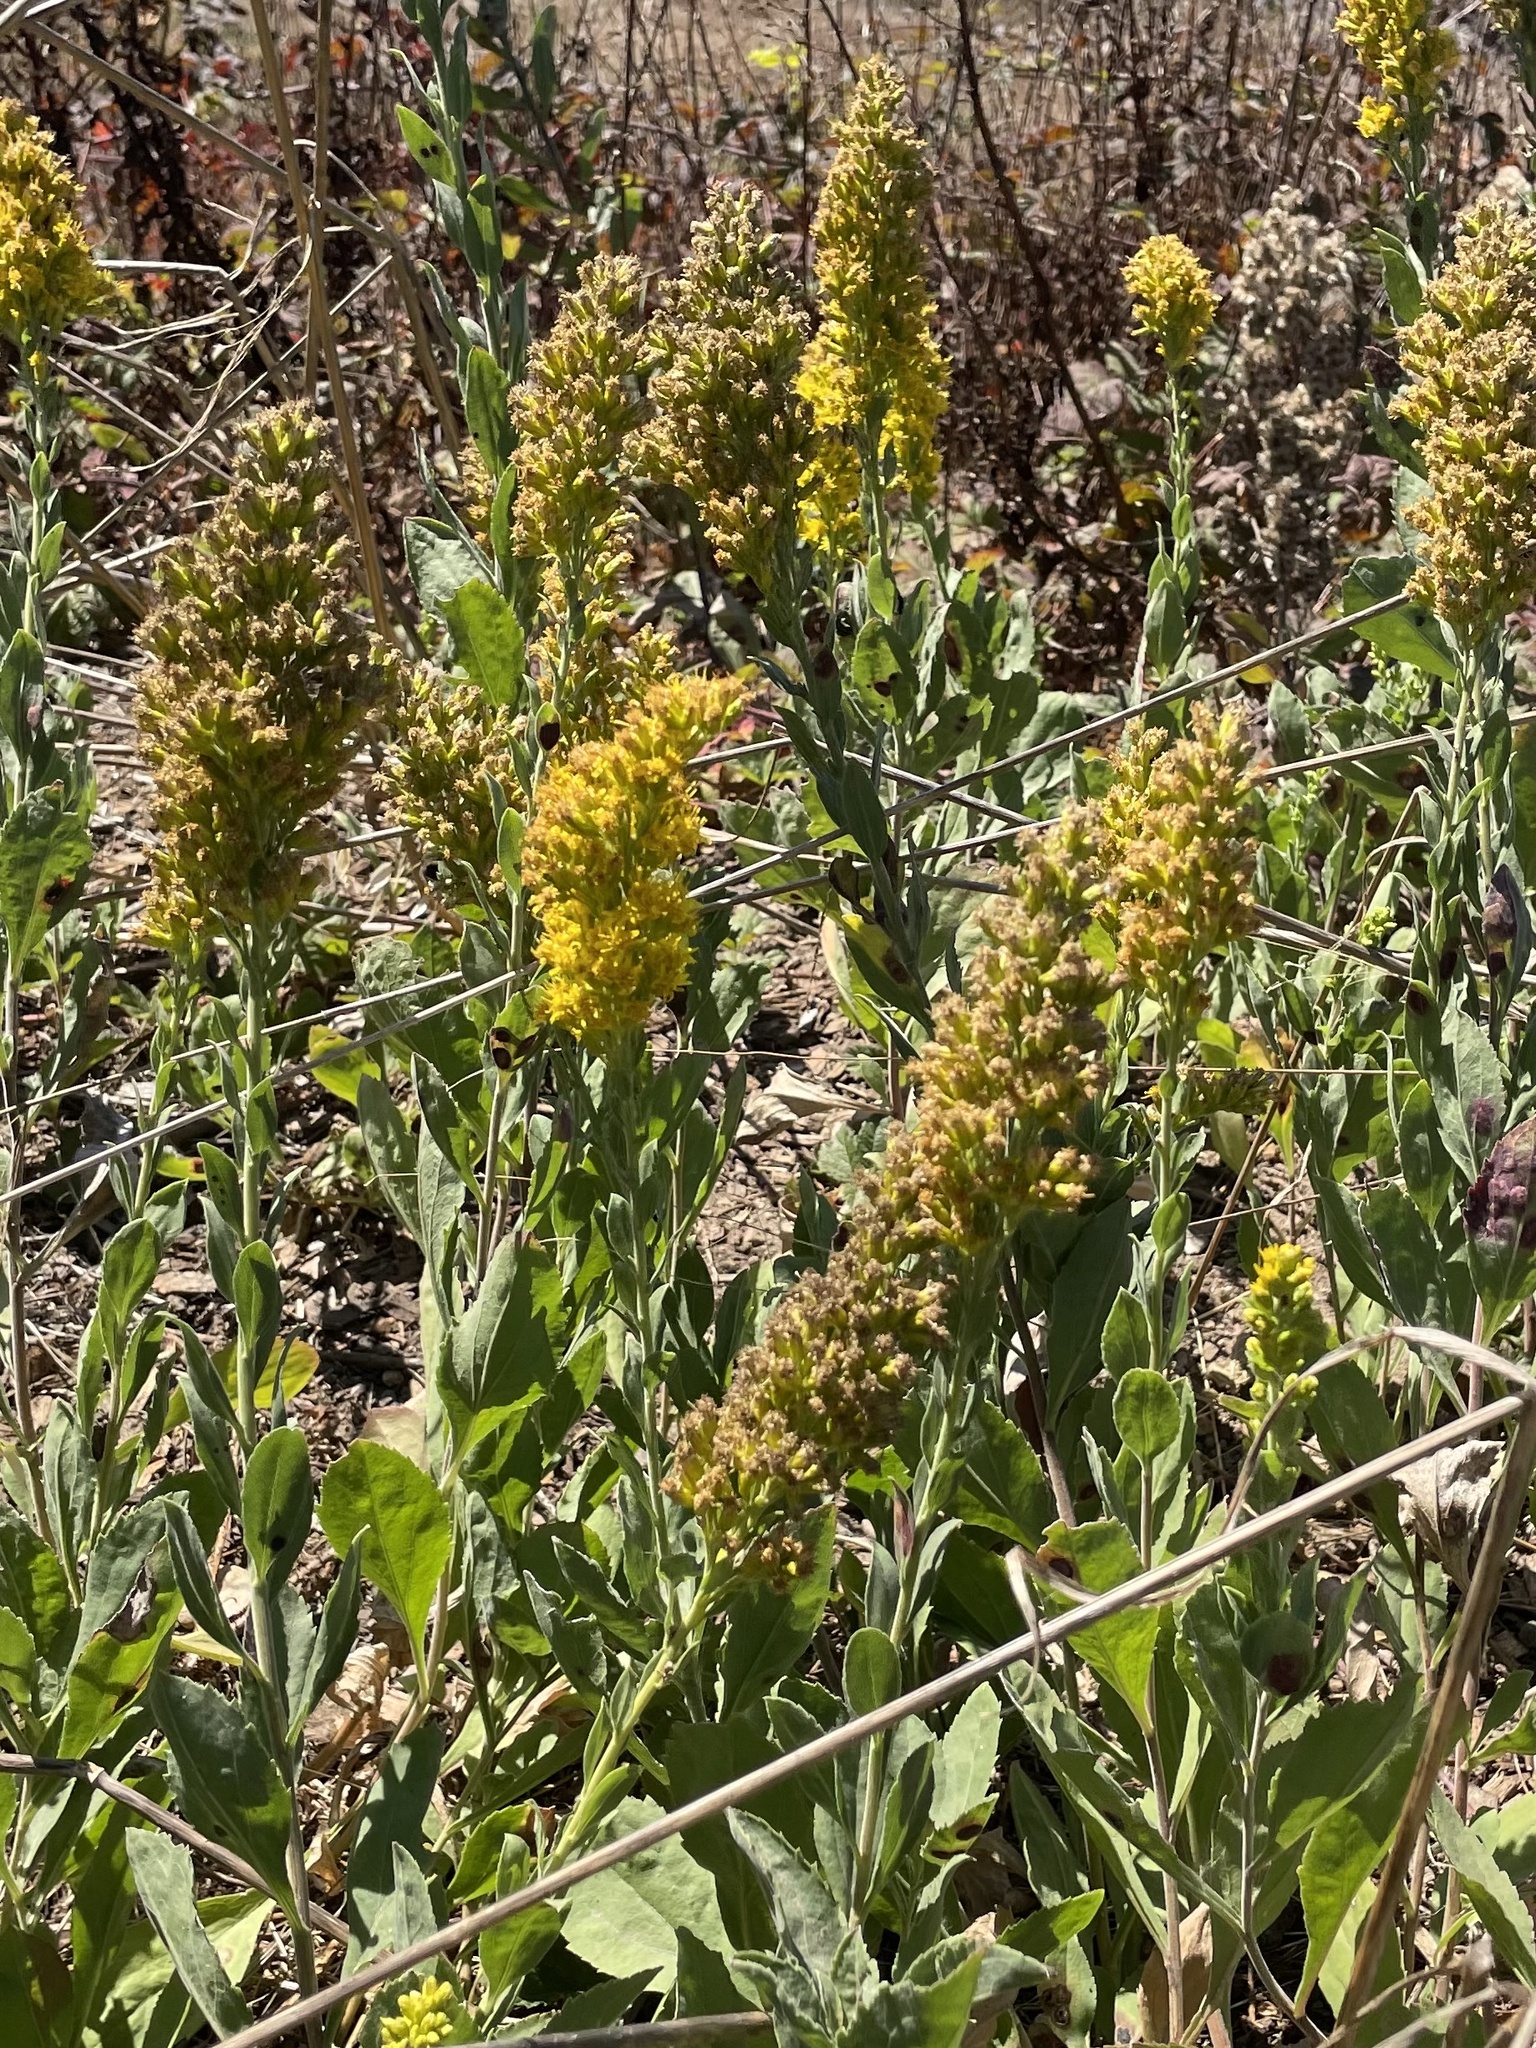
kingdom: Plantae
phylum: Tracheophyta
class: Magnoliopsida
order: Asterales
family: Asteraceae
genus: Solidago
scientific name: Solidago californica
